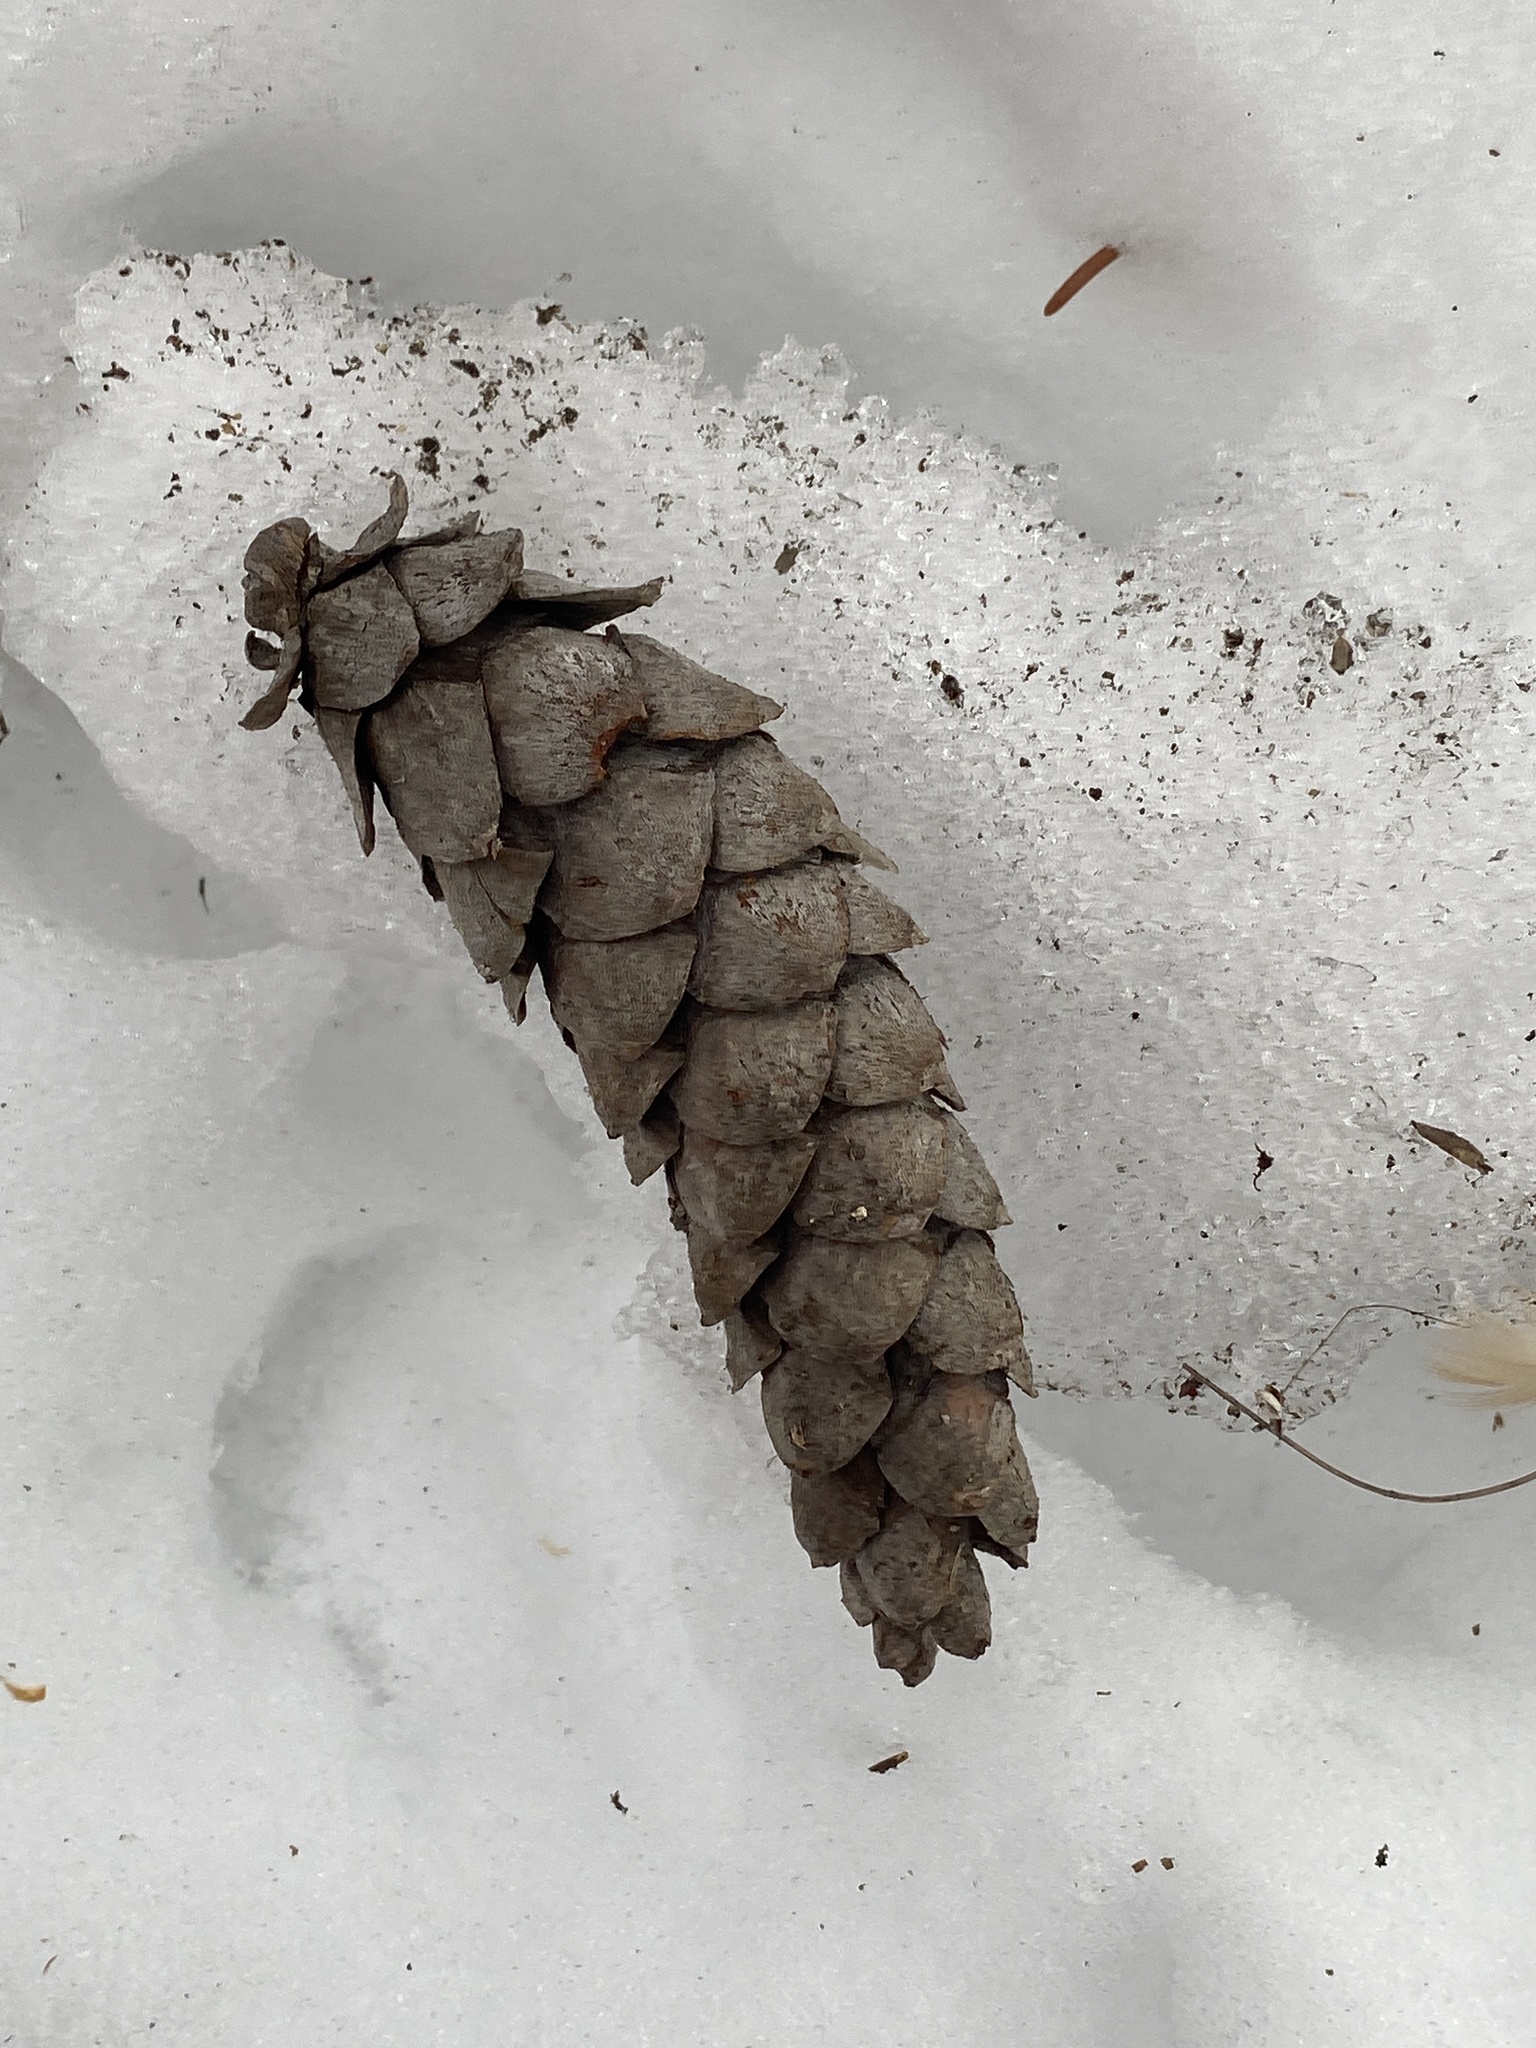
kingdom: Plantae
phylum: Tracheophyta
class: Pinopsida
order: Pinales
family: Pinaceae
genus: Pinus
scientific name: Pinus strobus
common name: Weymouth pine
